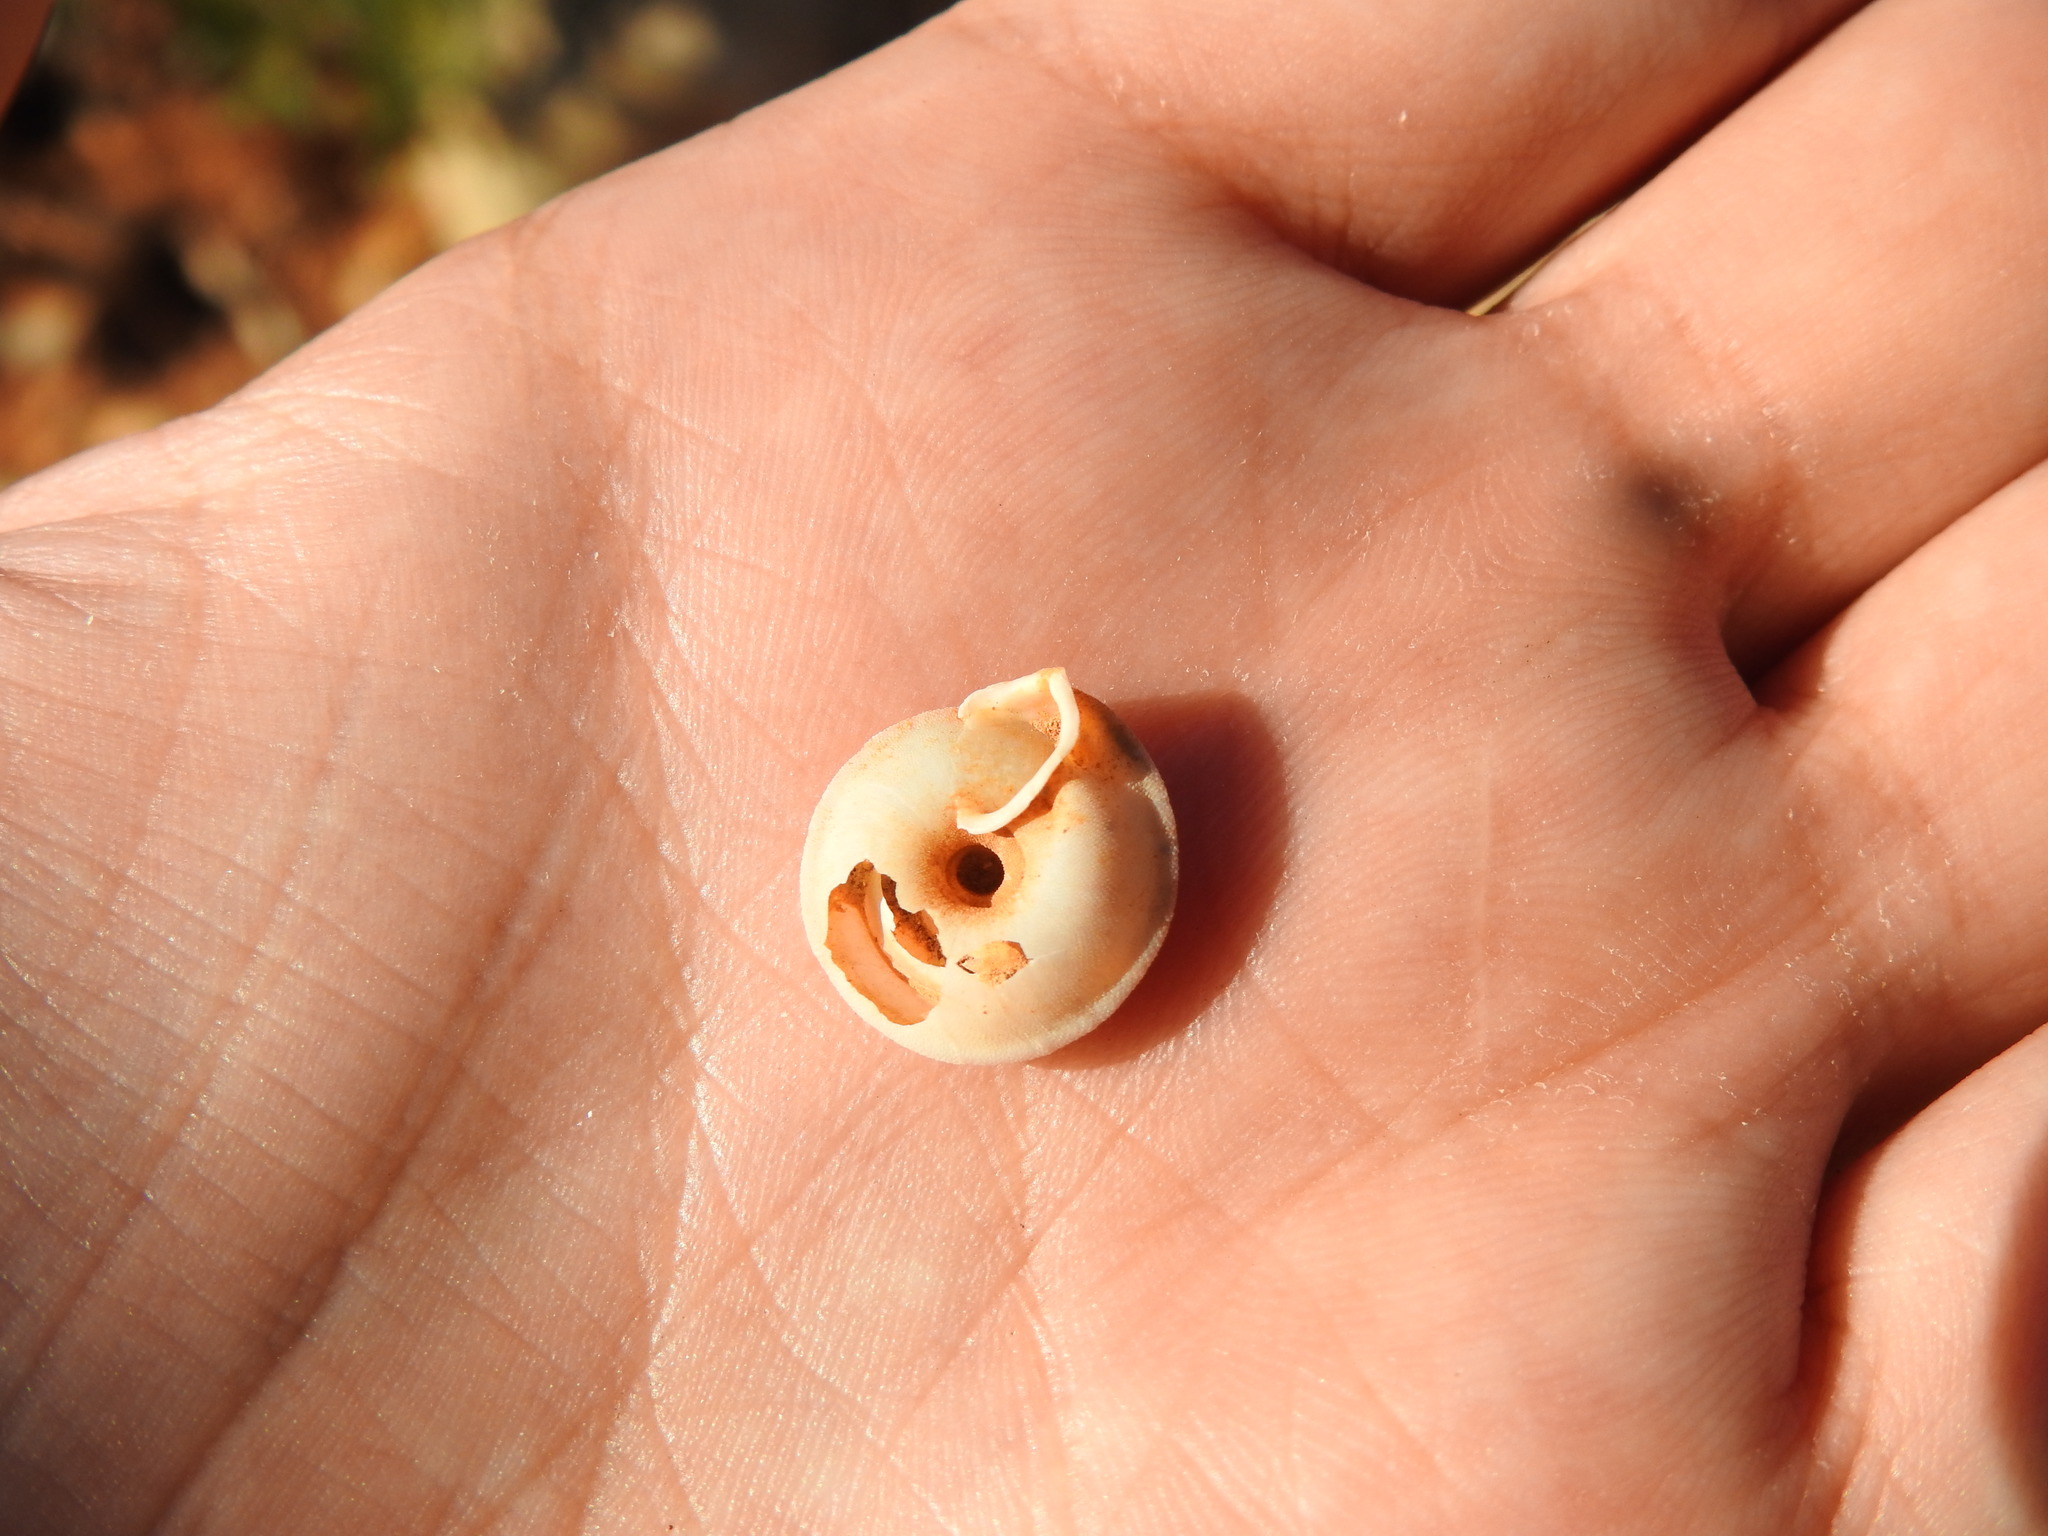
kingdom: Animalia
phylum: Mollusca
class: Gastropoda
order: Stylommatophora
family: Trissexodontidae
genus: Gittenbergeria
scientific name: Gittenbergeria turriplana
